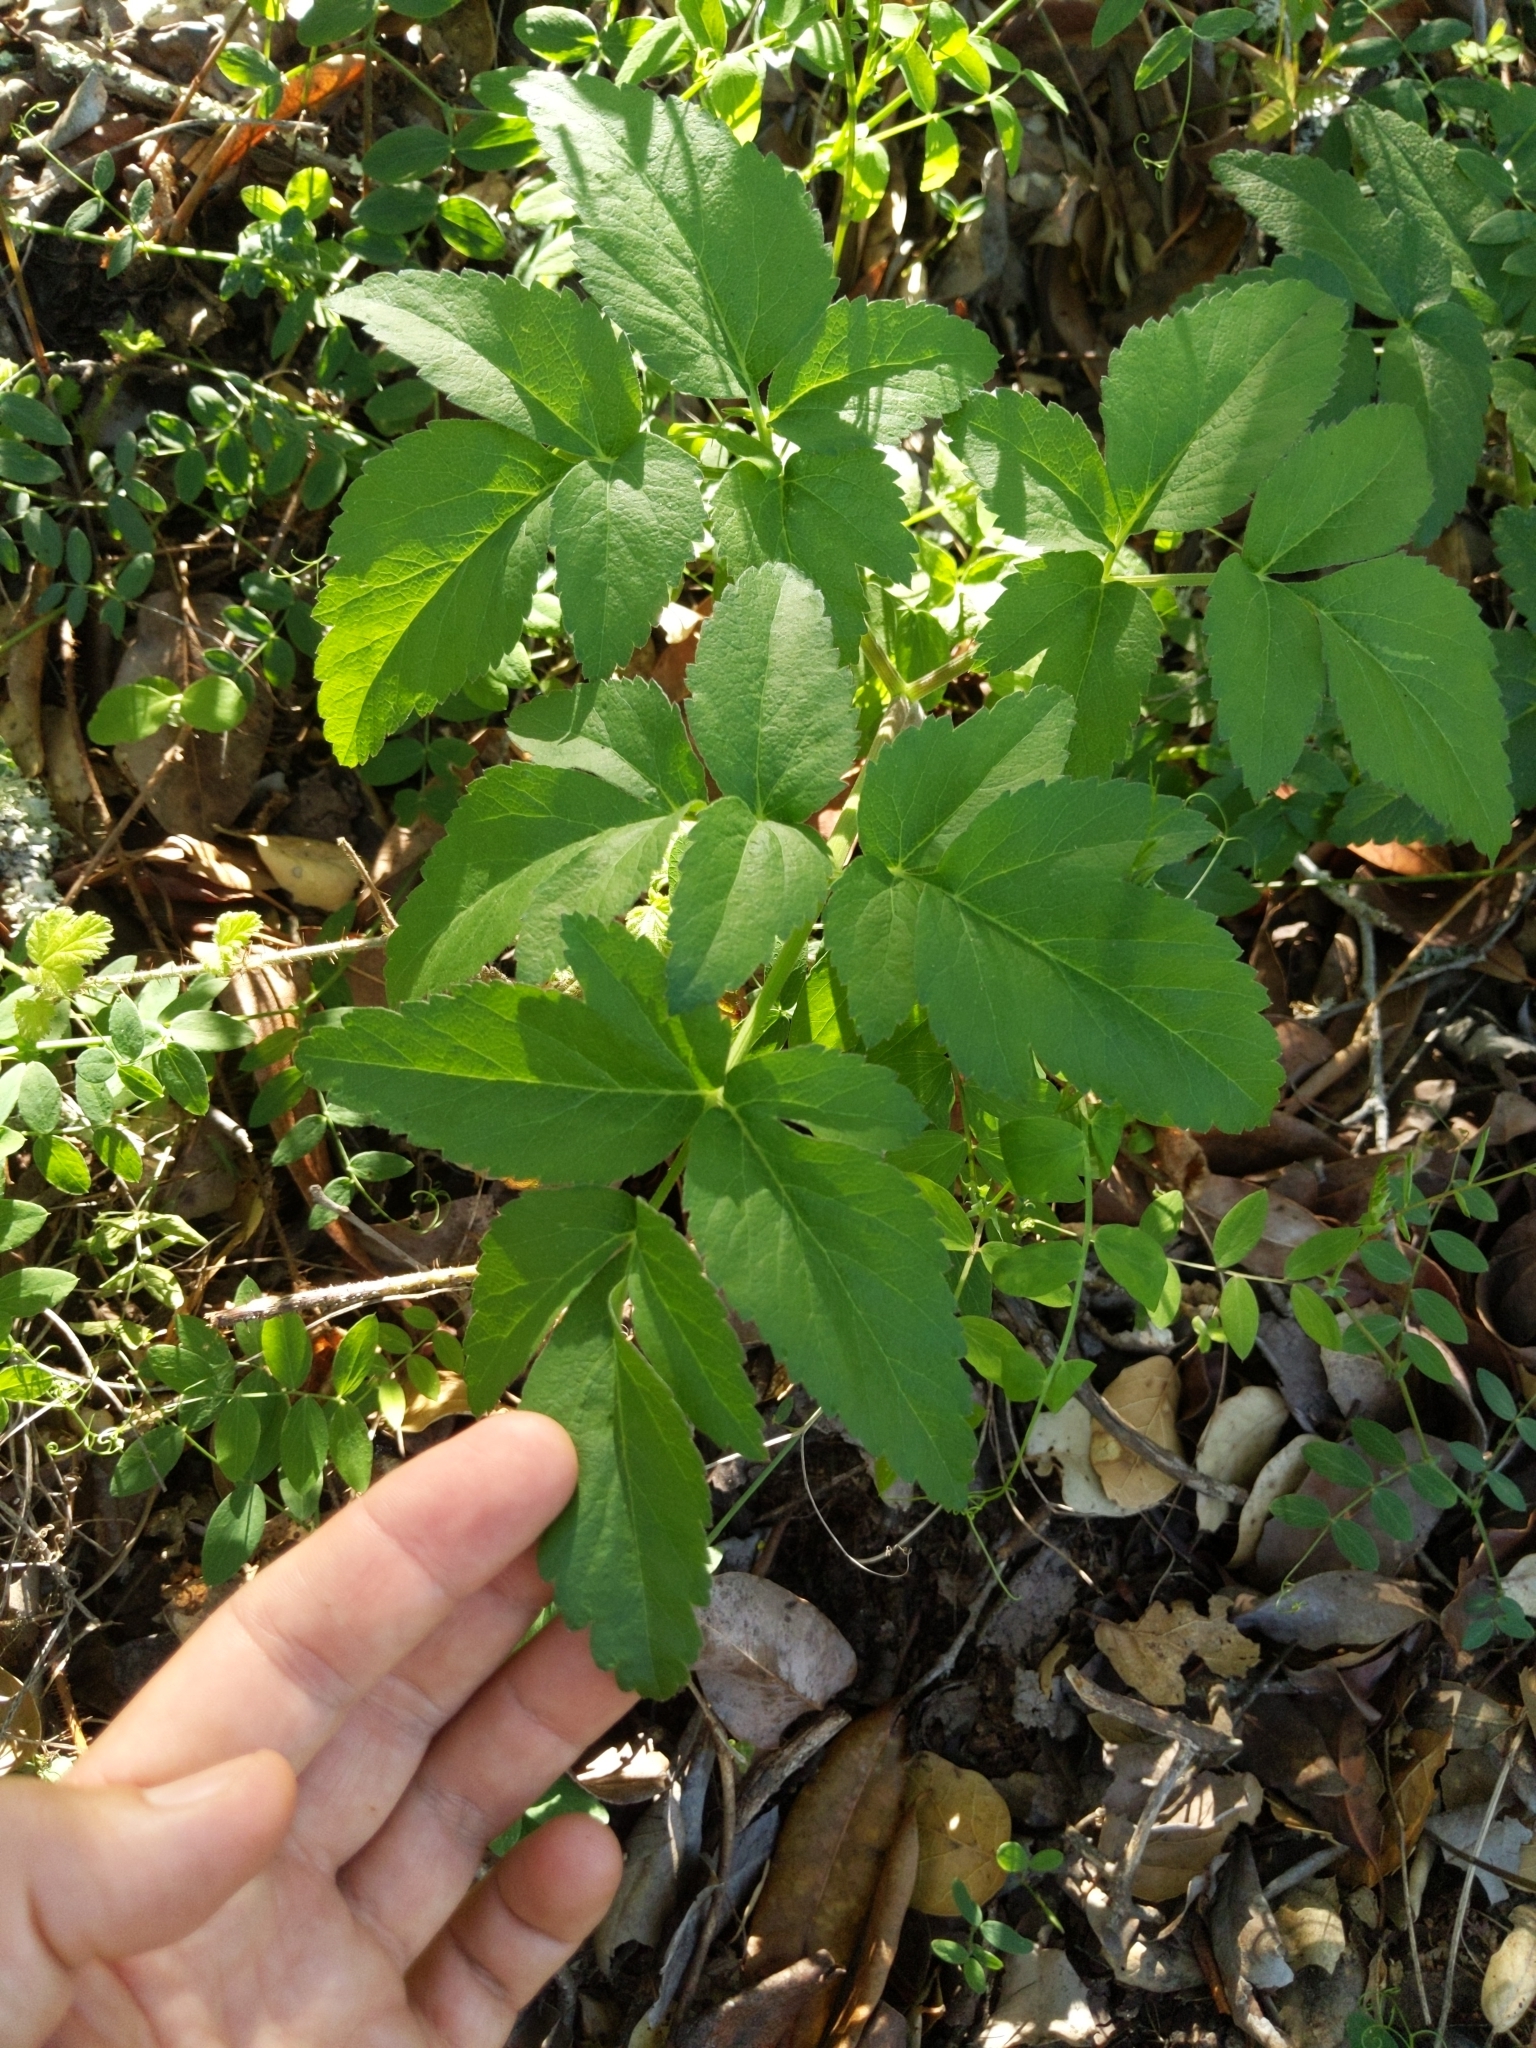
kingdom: Plantae
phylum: Tracheophyta
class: Magnoliopsida
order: Apiales
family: Apiaceae
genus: Angelica
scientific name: Angelica californica
